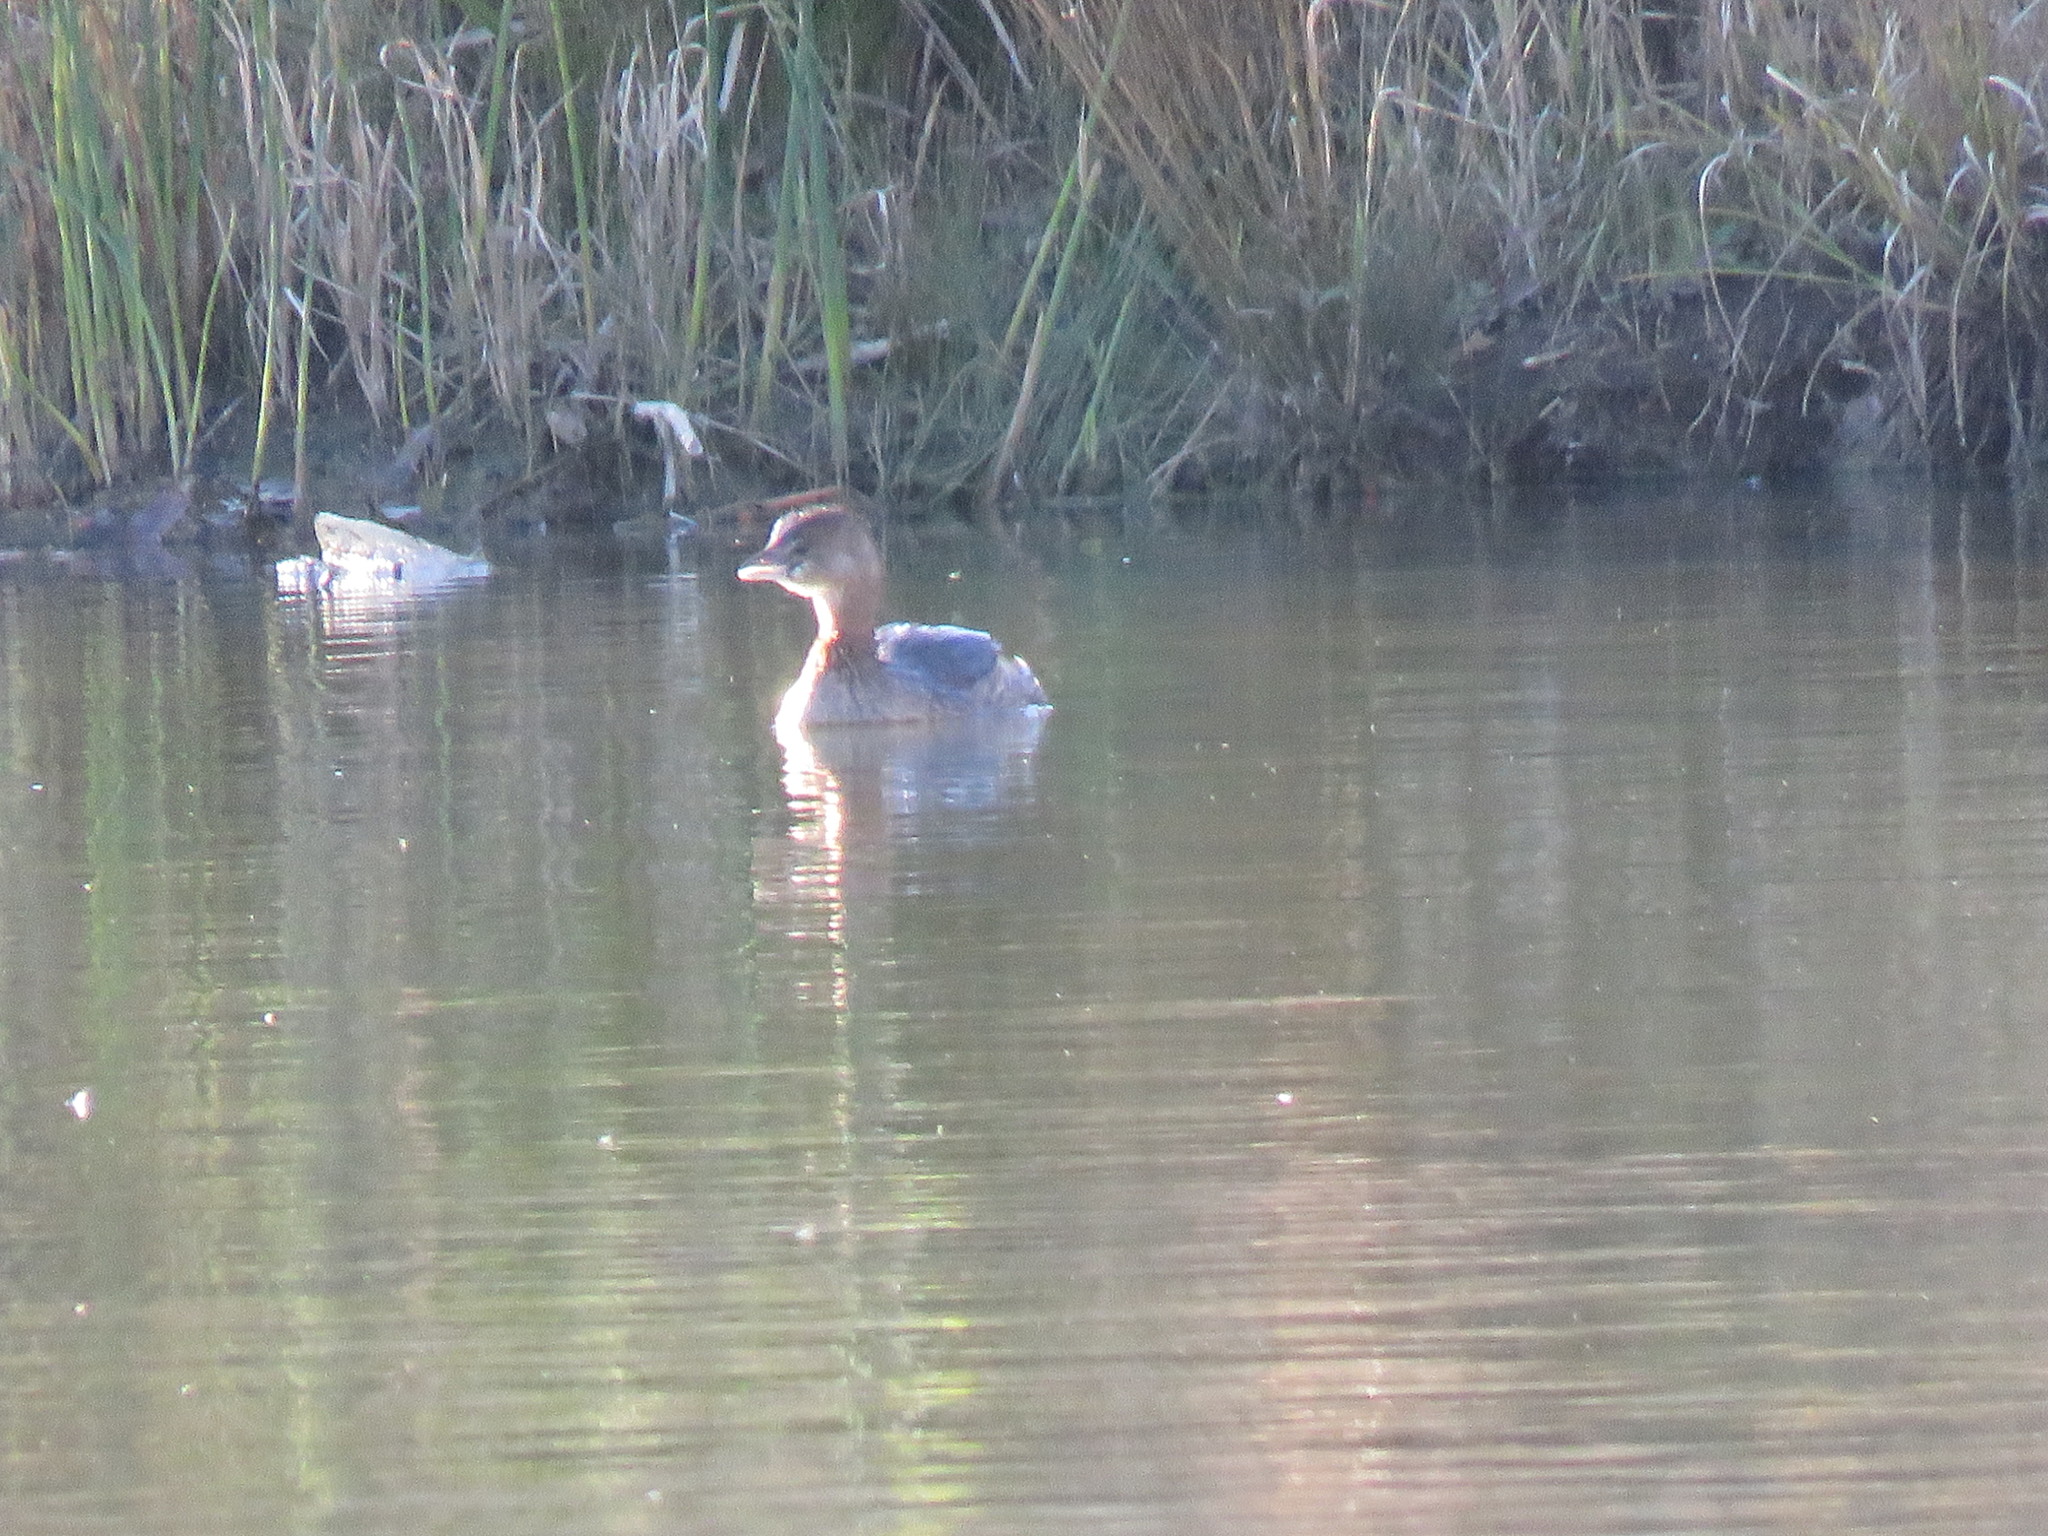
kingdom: Animalia
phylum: Chordata
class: Aves
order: Podicipediformes
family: Podicipedidae
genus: Podilymbus
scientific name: Podilymbus podiceps
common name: Pied-billed grebe
